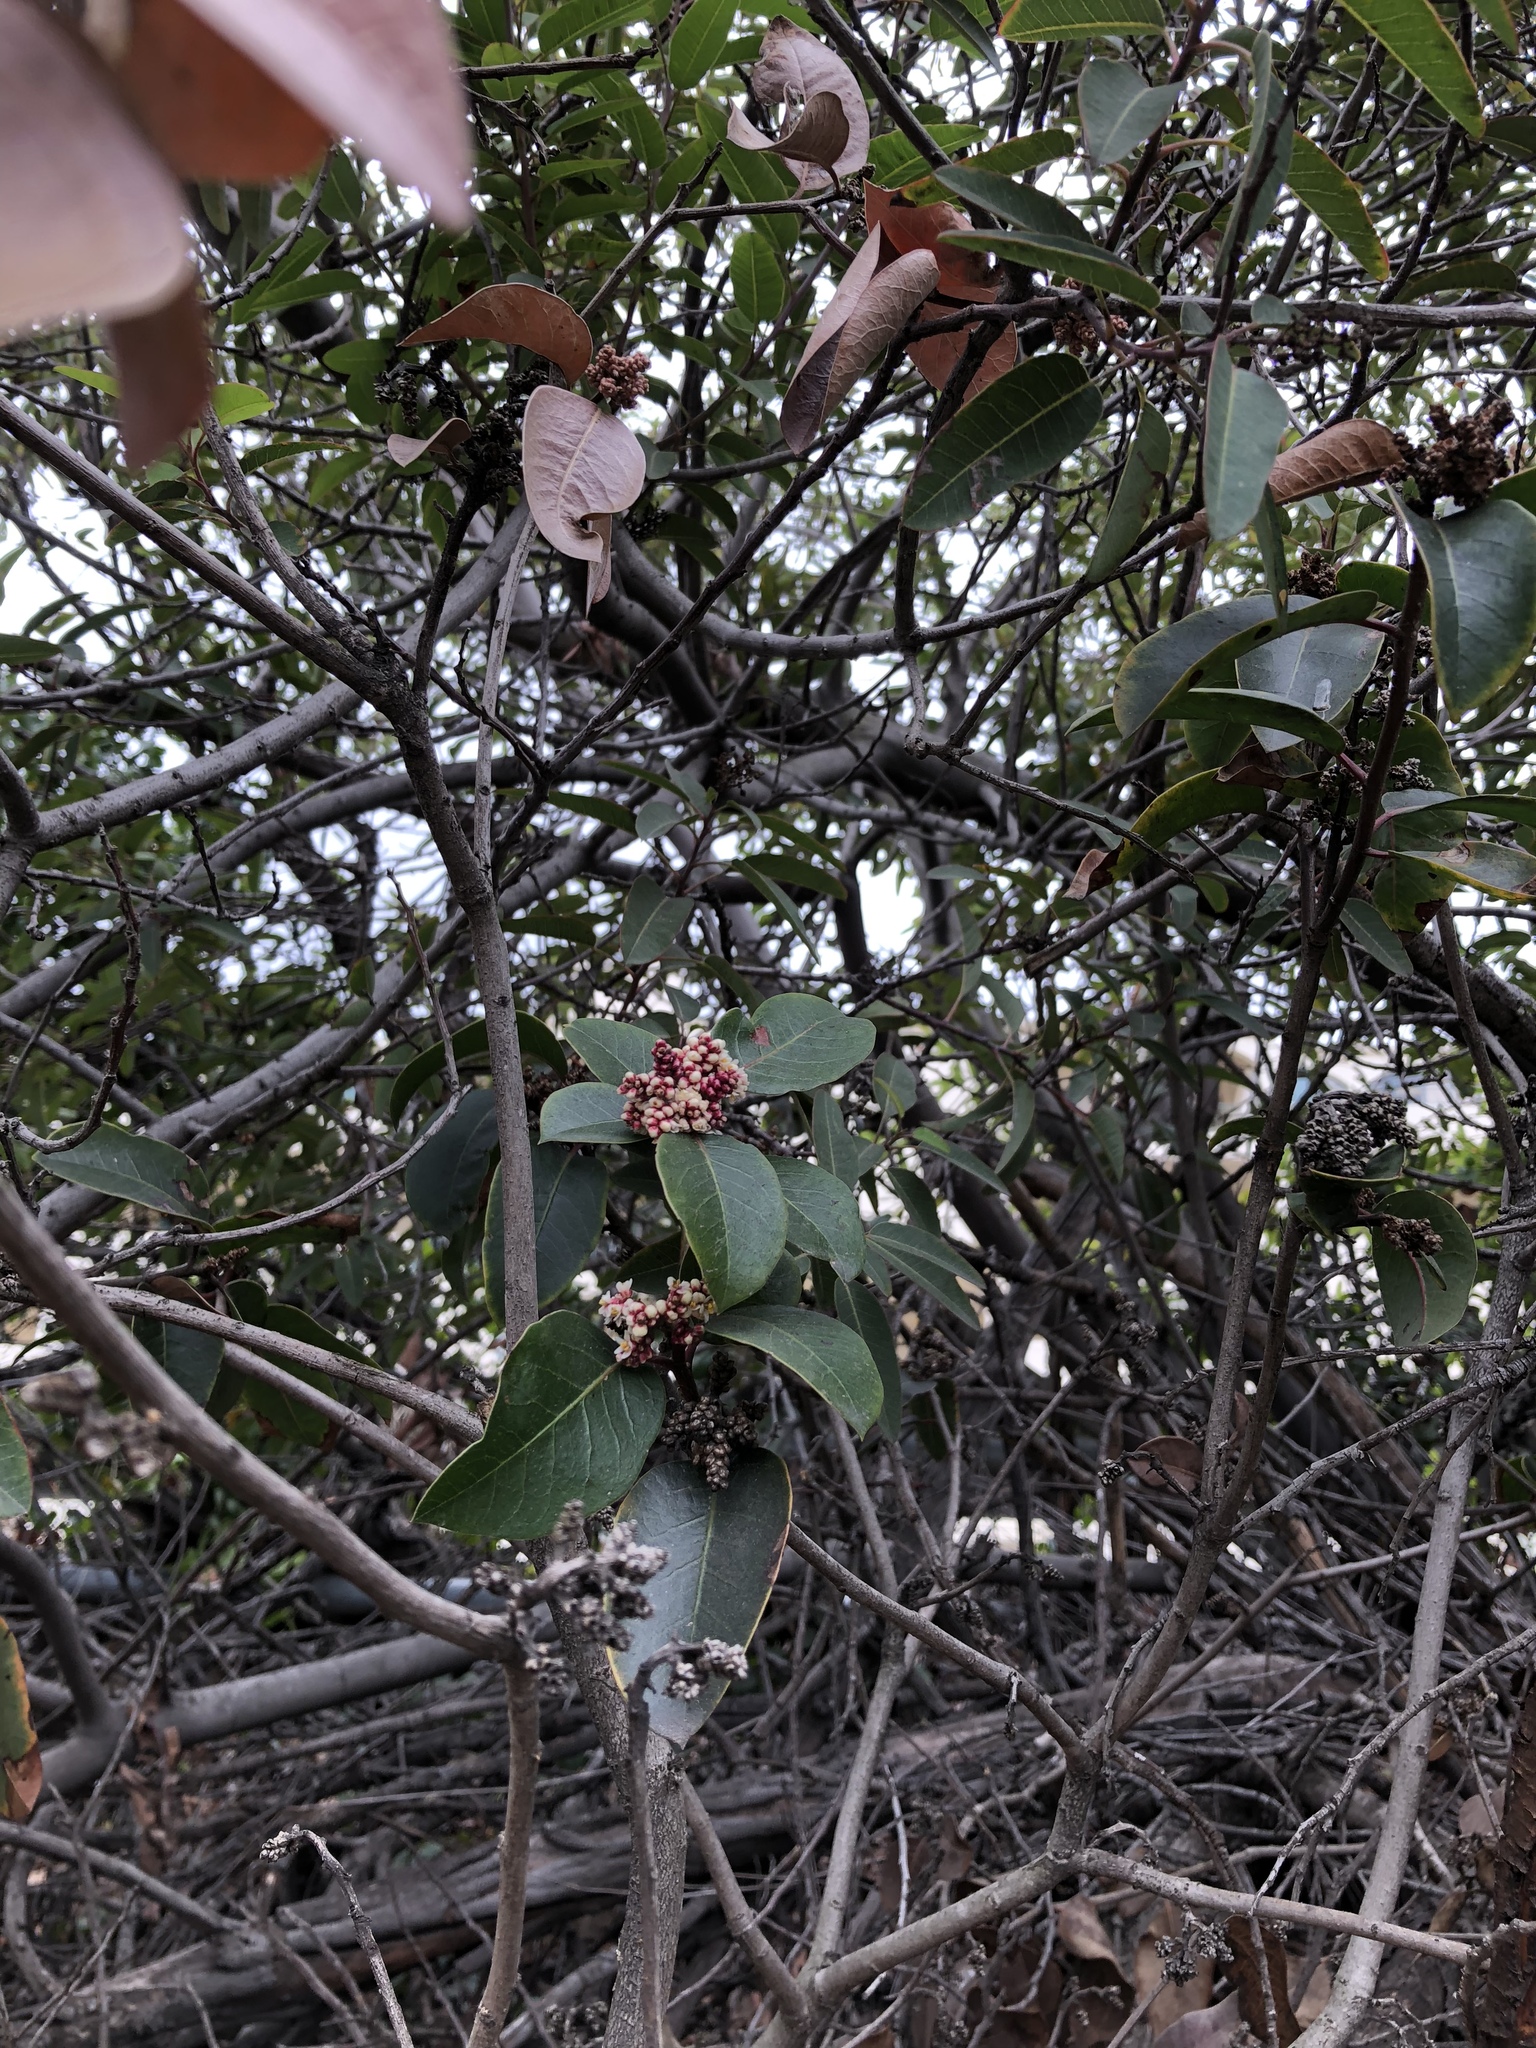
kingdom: Plantae
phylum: Tracheophyta
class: Magnoliopsida
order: Sapindales
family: Anacardiaceae
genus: Rhus
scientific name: Rhus ovata
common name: Sugar sumac
